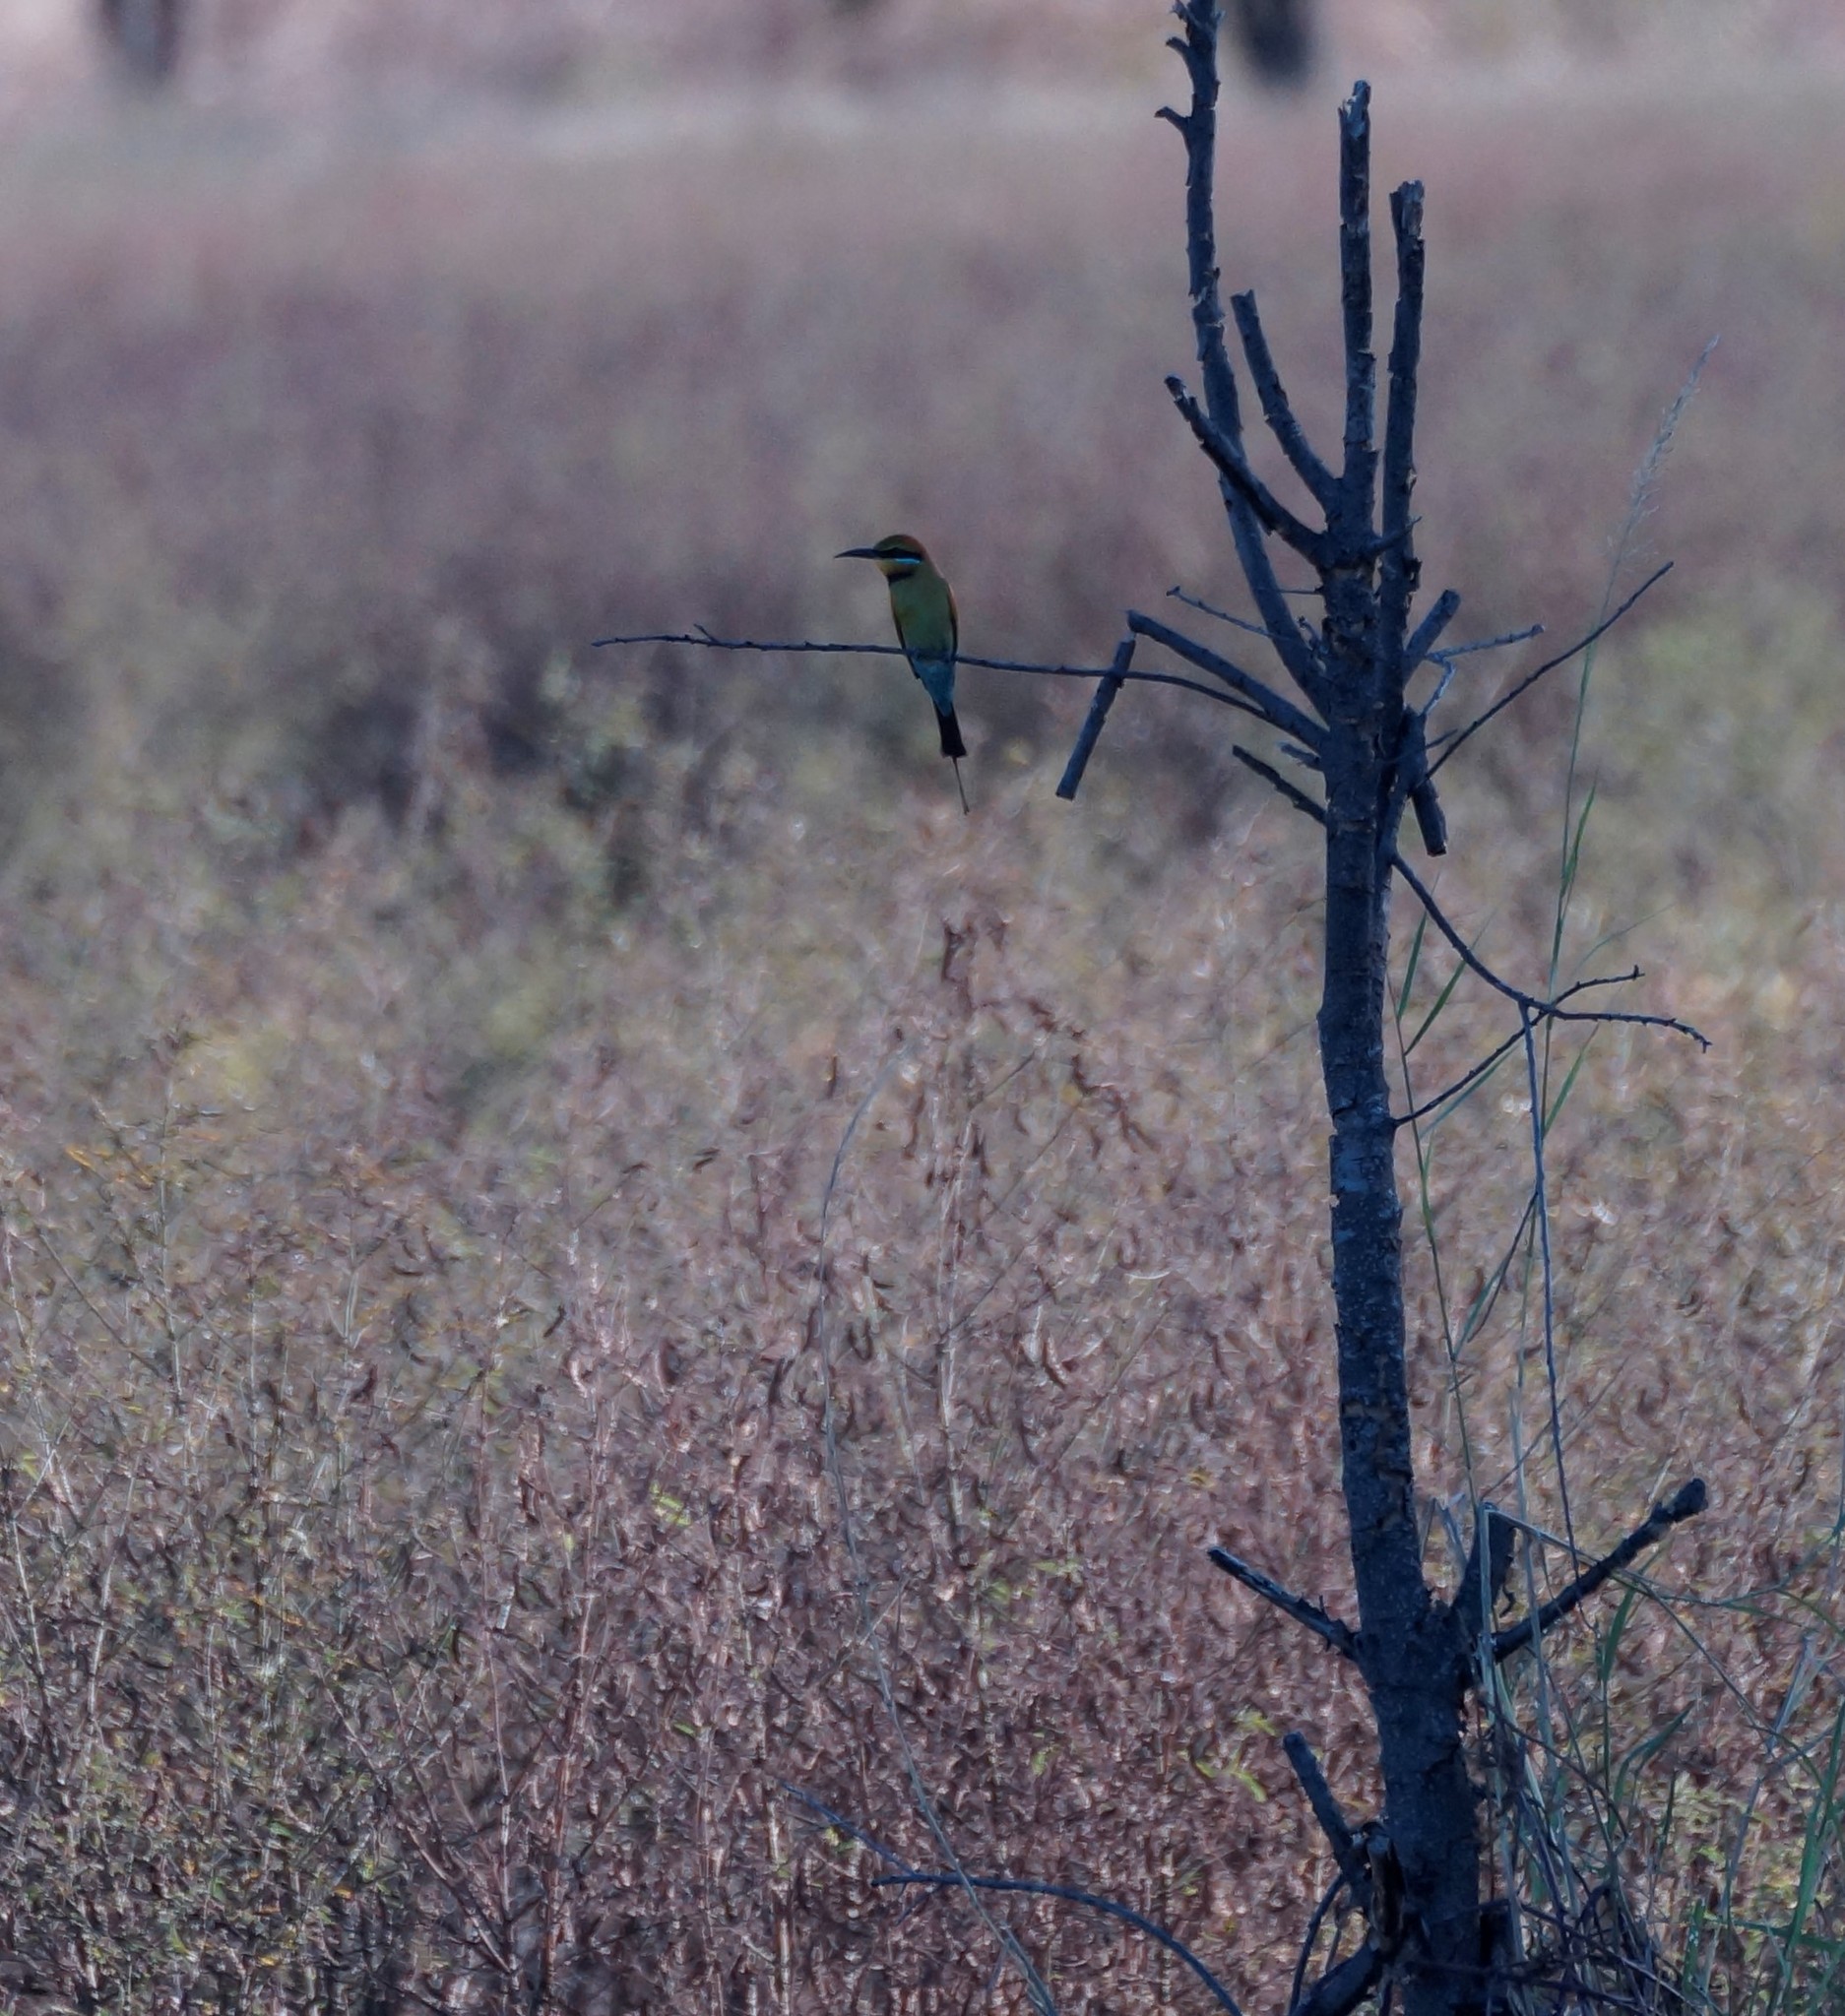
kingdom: Animalia
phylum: Chordata
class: Aves
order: Coraciiformes
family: Meropidae
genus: Merops
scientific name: Merops ornatus
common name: Rainbow bee-eater
